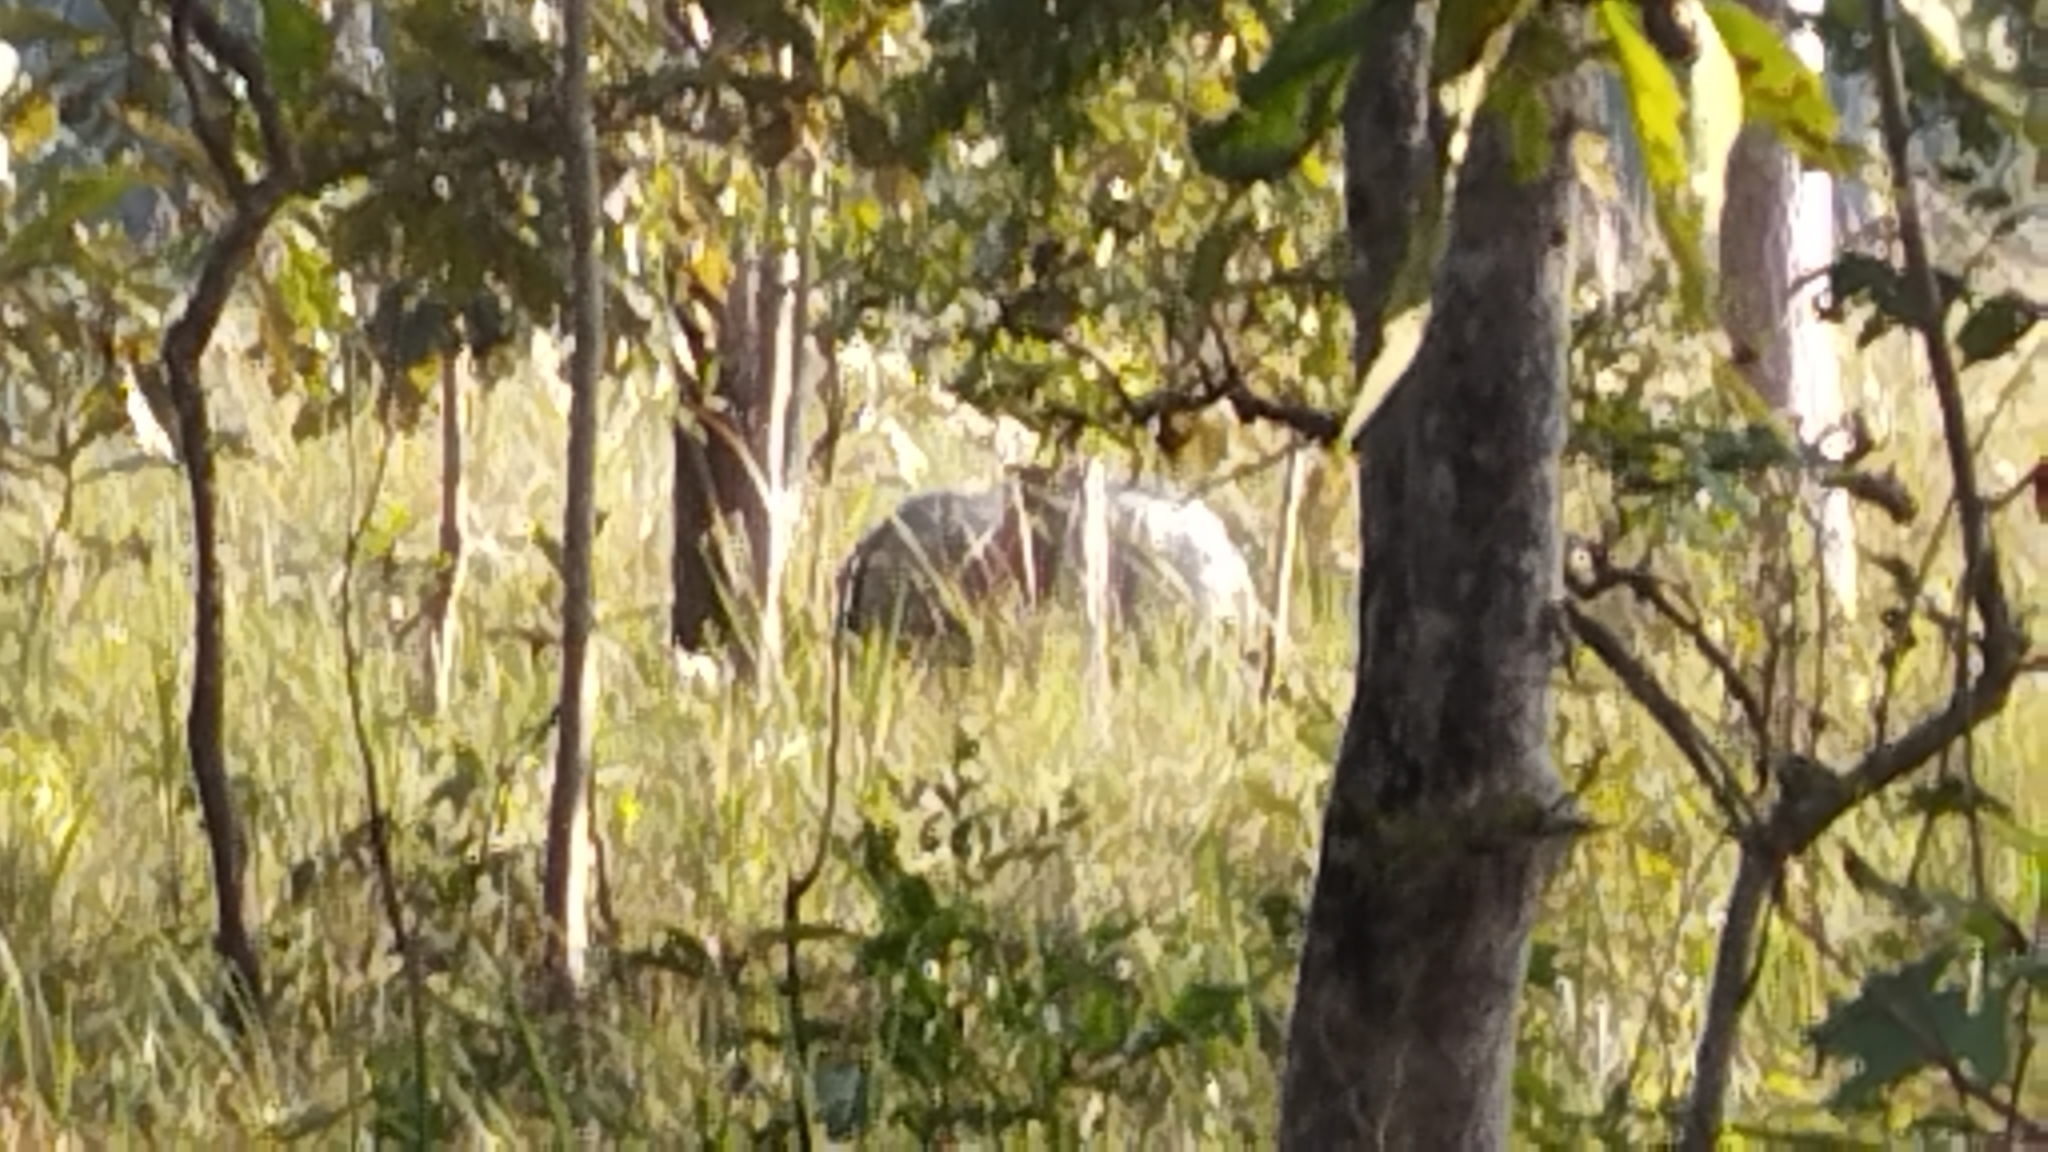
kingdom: Animalia
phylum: Chordata
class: Mammalia
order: Perissodactyla
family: Rhinocerotidae
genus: Rhinoceros
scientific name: Rhinoceros unicornis
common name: Indian rhinoceros
